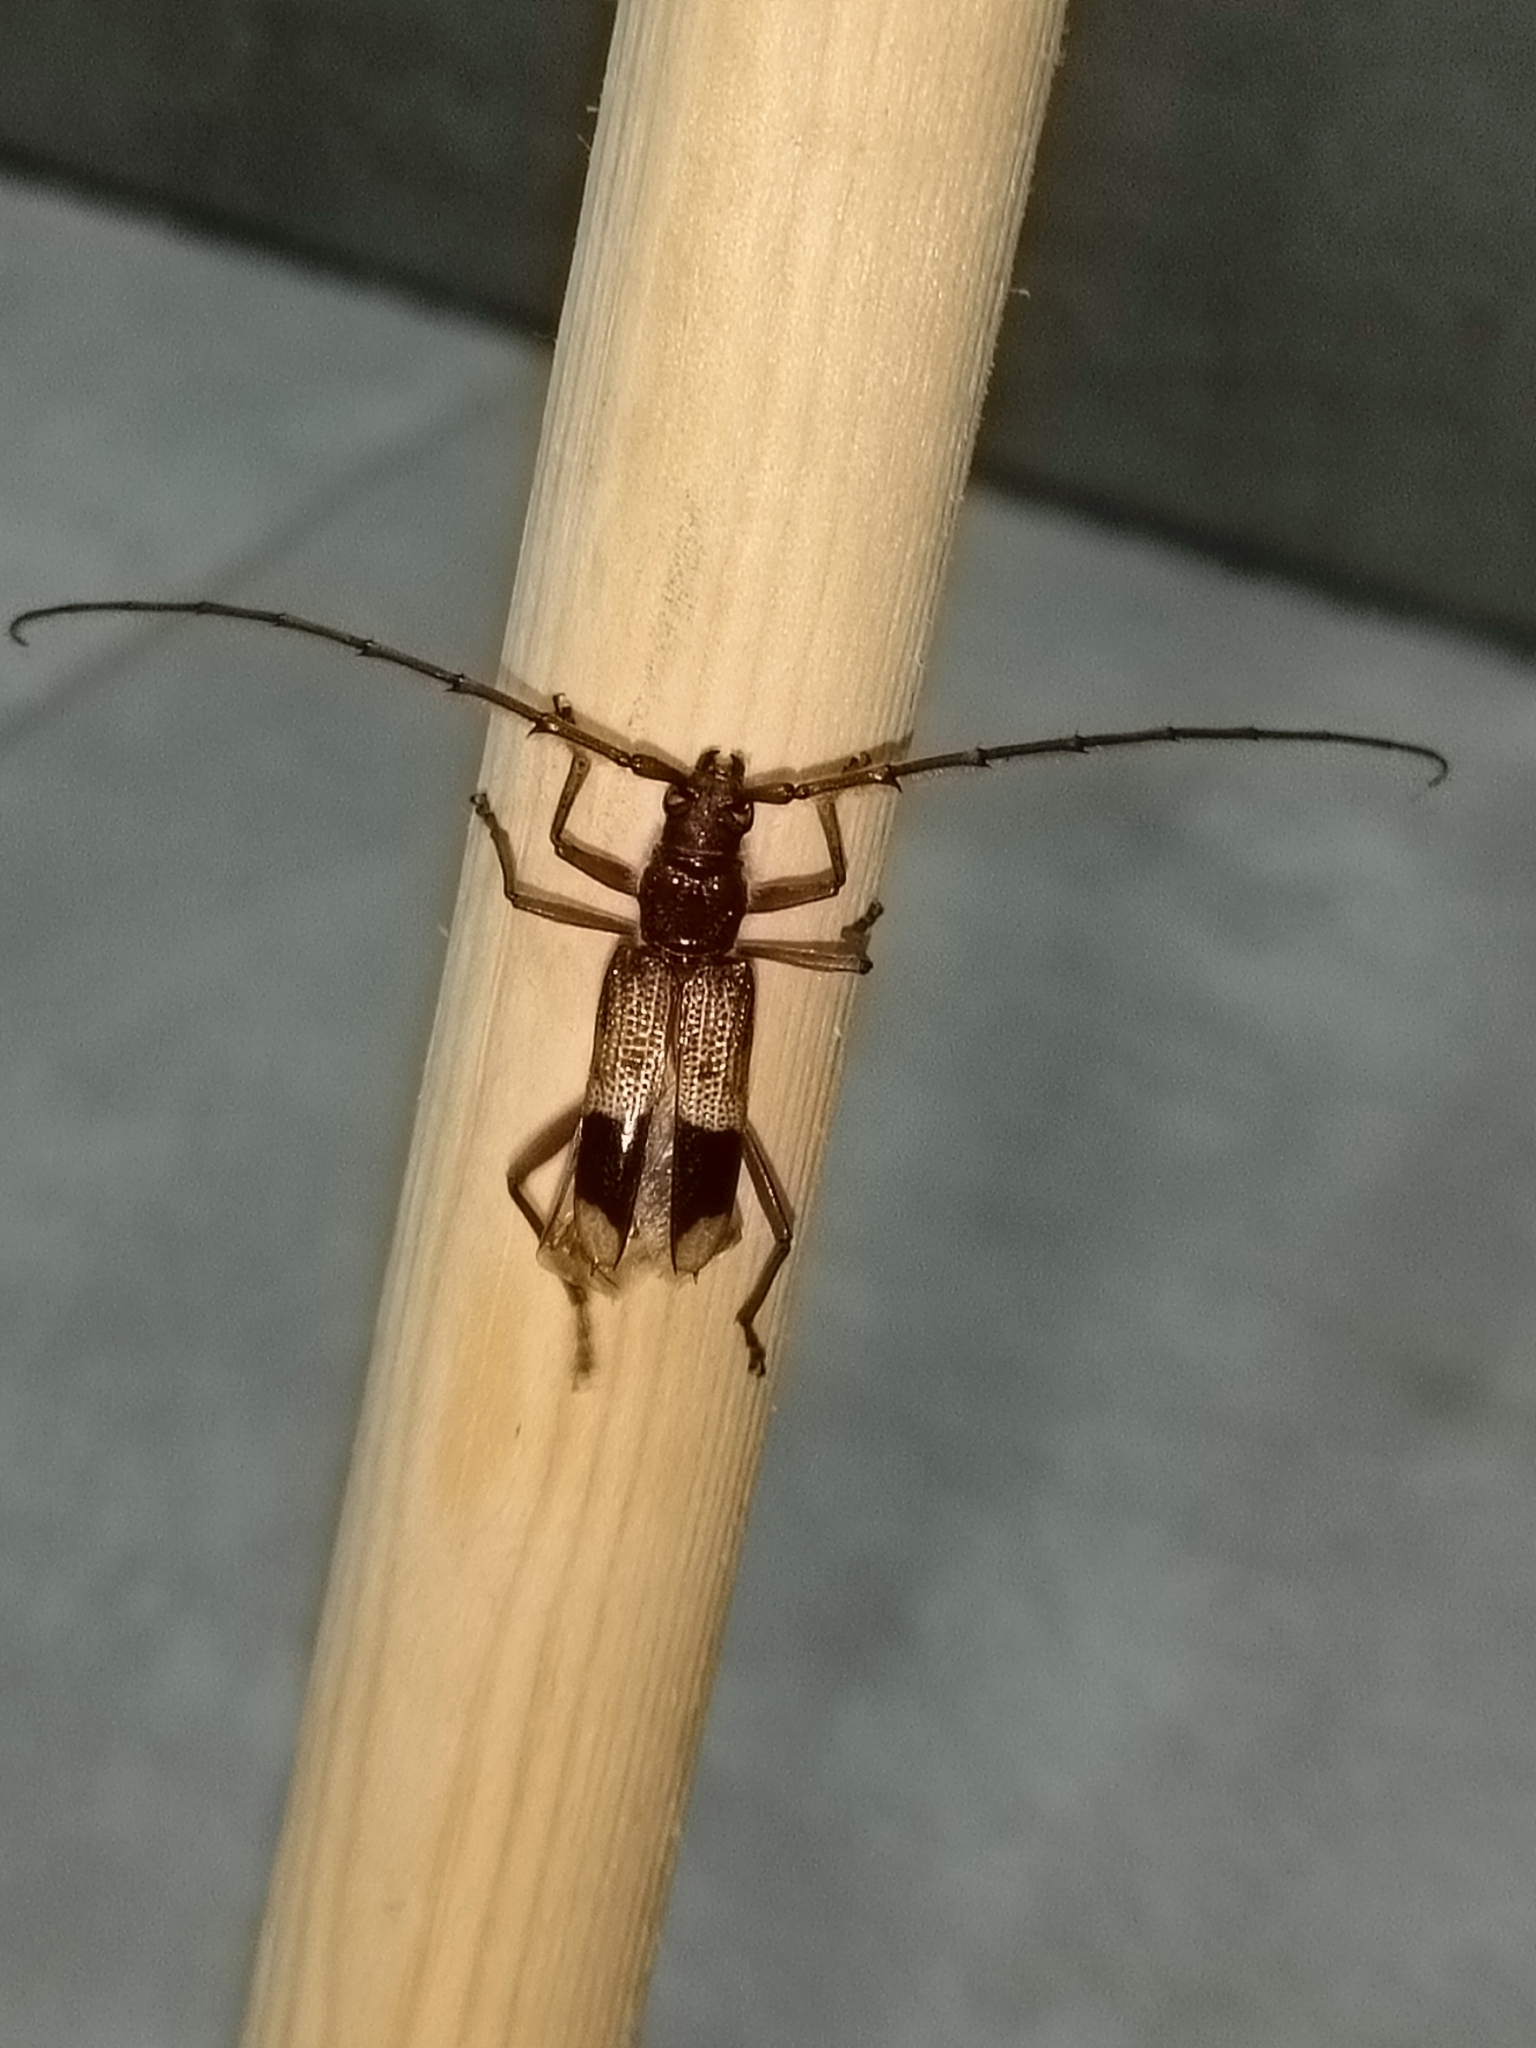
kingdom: Animalia
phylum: Arthropoda
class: Insecta
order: Coleoptera
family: Cerambycidae
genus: Phoracantha
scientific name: Phoracantha recurva
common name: Eucalyptus longhorned borer
